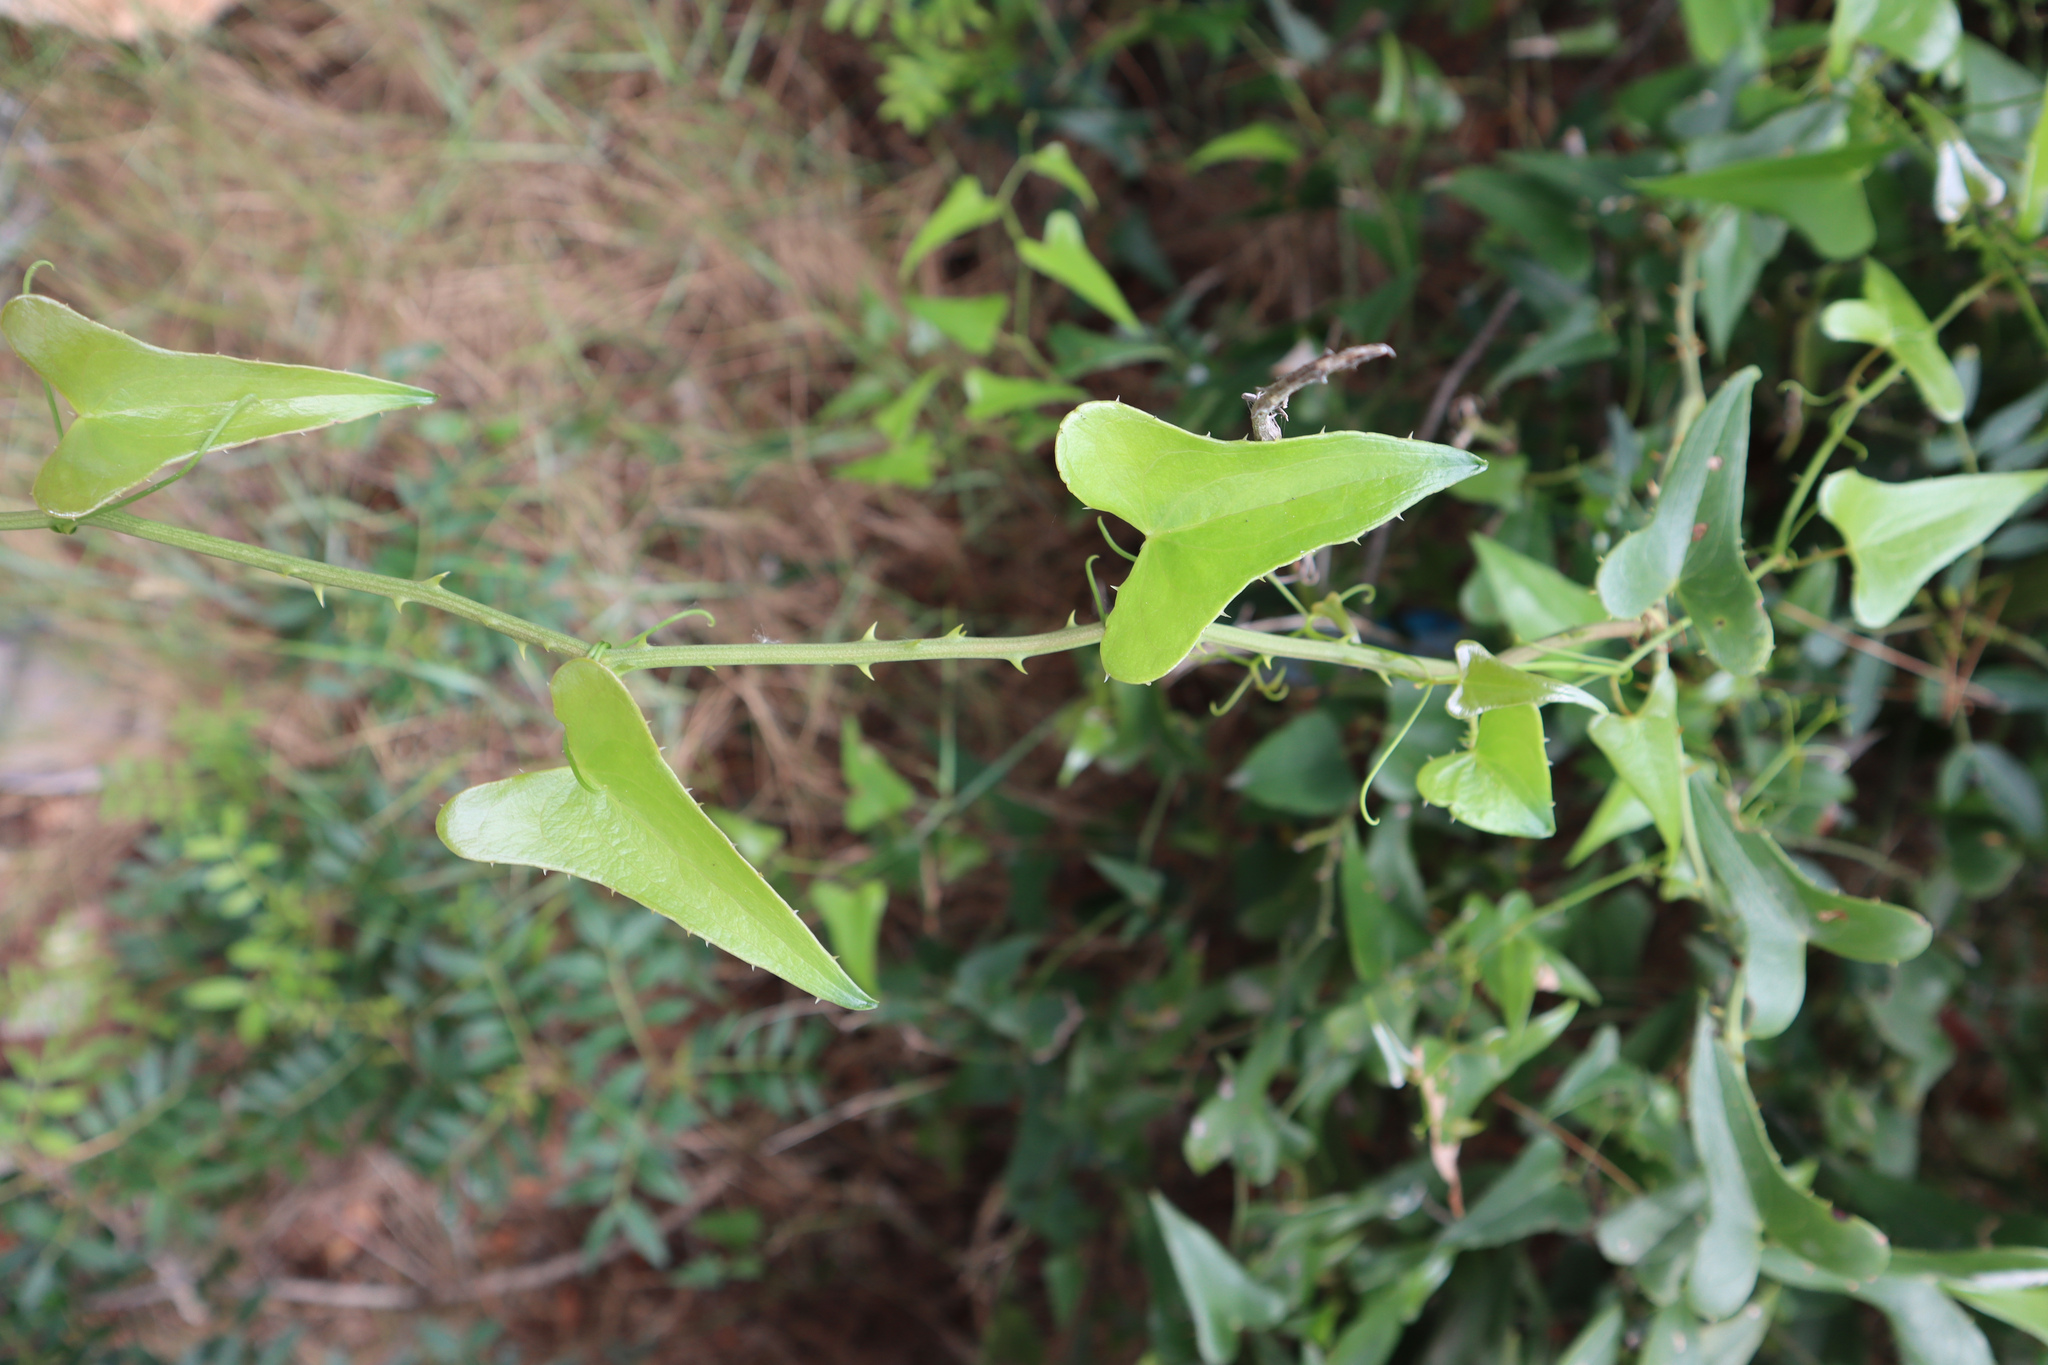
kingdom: Plantae
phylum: Tracheophyta
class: Liliopsida
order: Liliales
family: Smilacaceae
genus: Smilax
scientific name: Smilax aspera
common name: Common smilax
